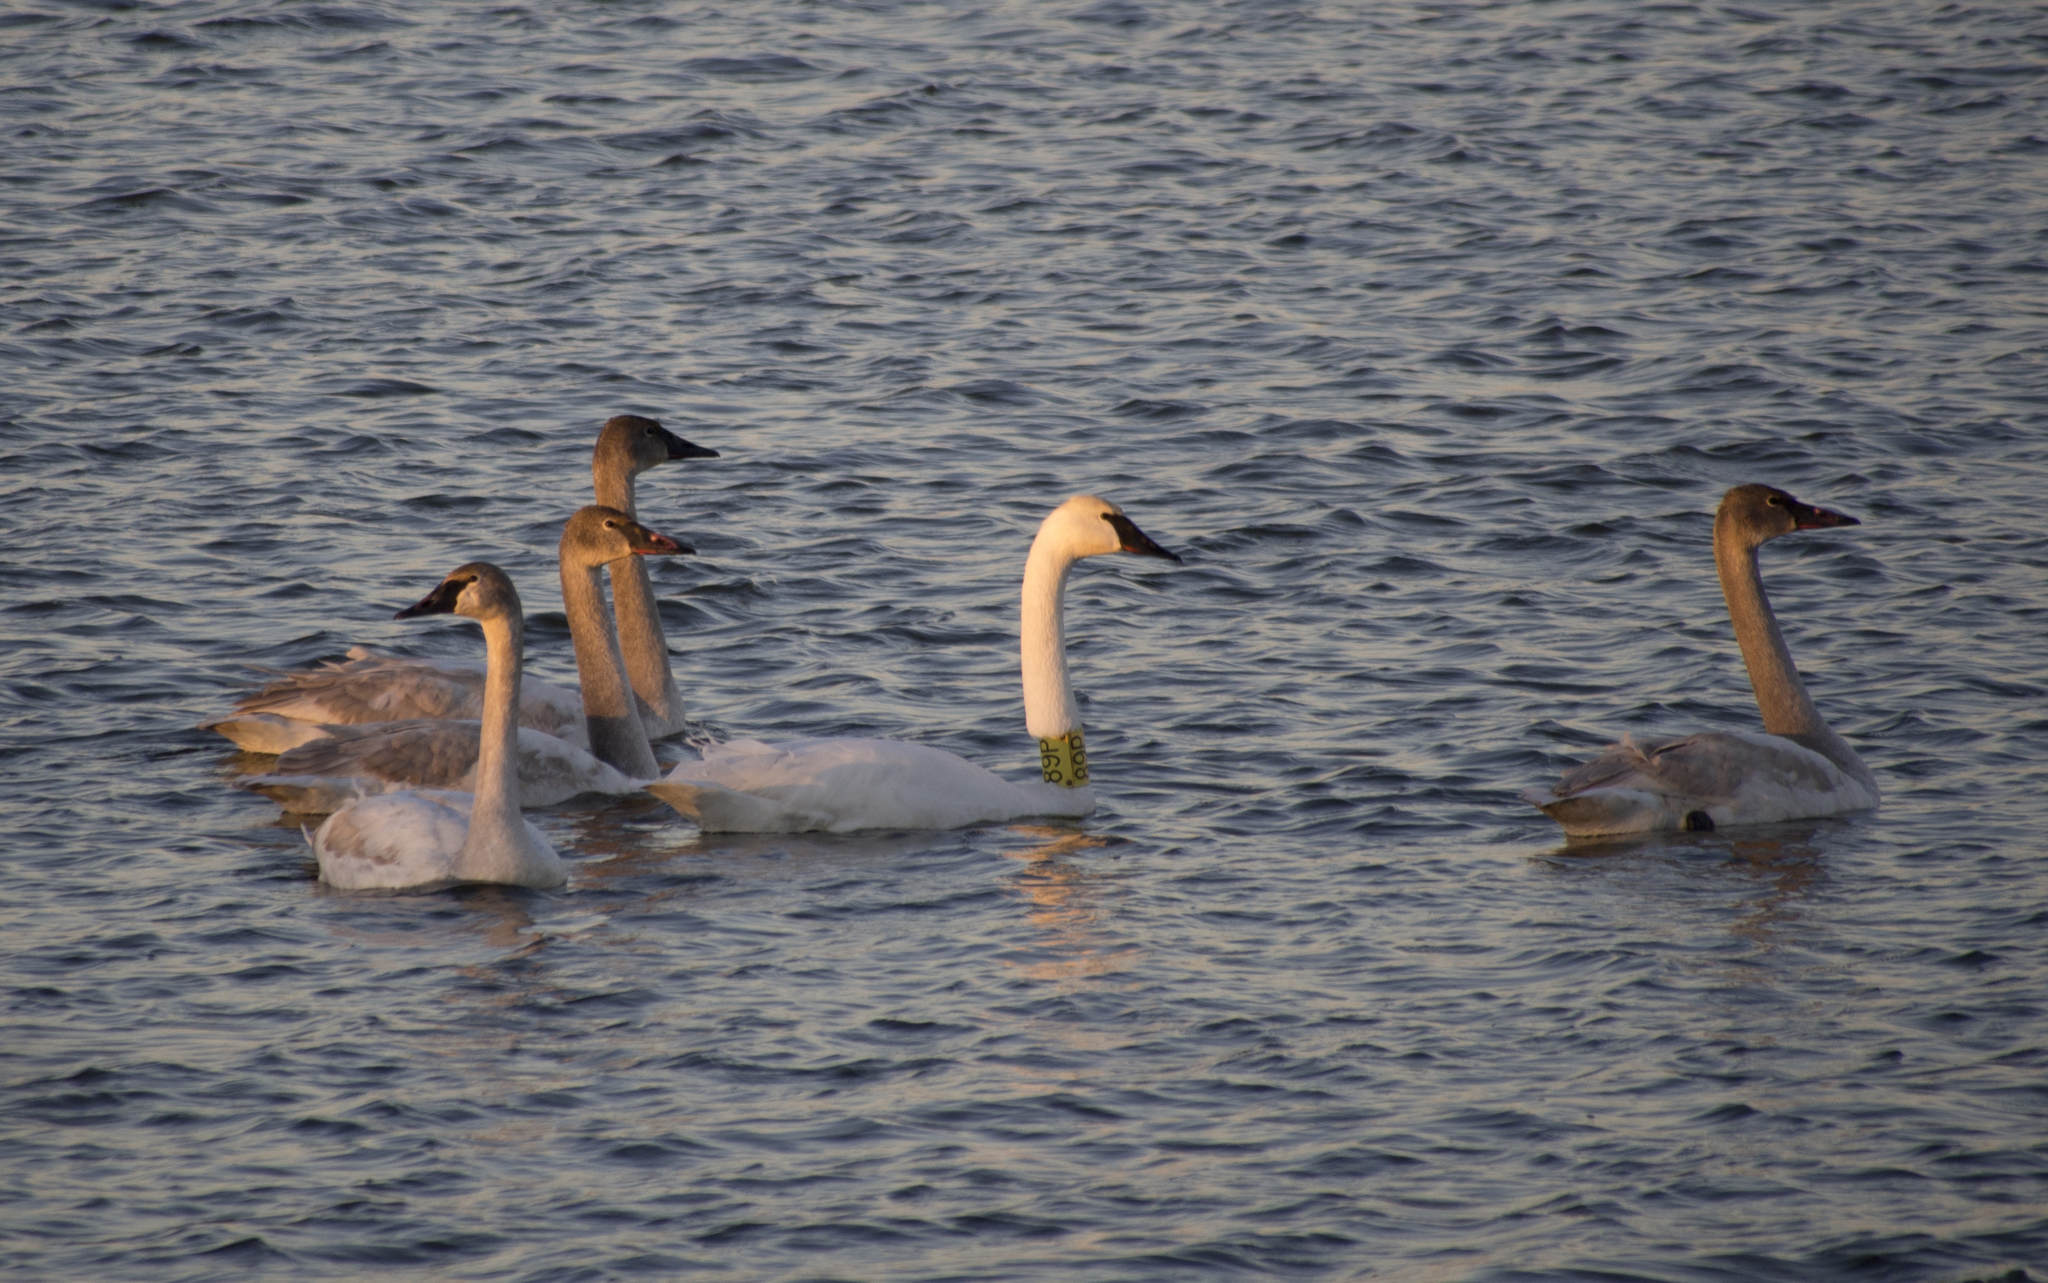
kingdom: Animalia
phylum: Chordata
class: Aves
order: Anseriformes
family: Anatidae
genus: Cygnus
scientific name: Cygnus buccinator
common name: Trumpeter swan
